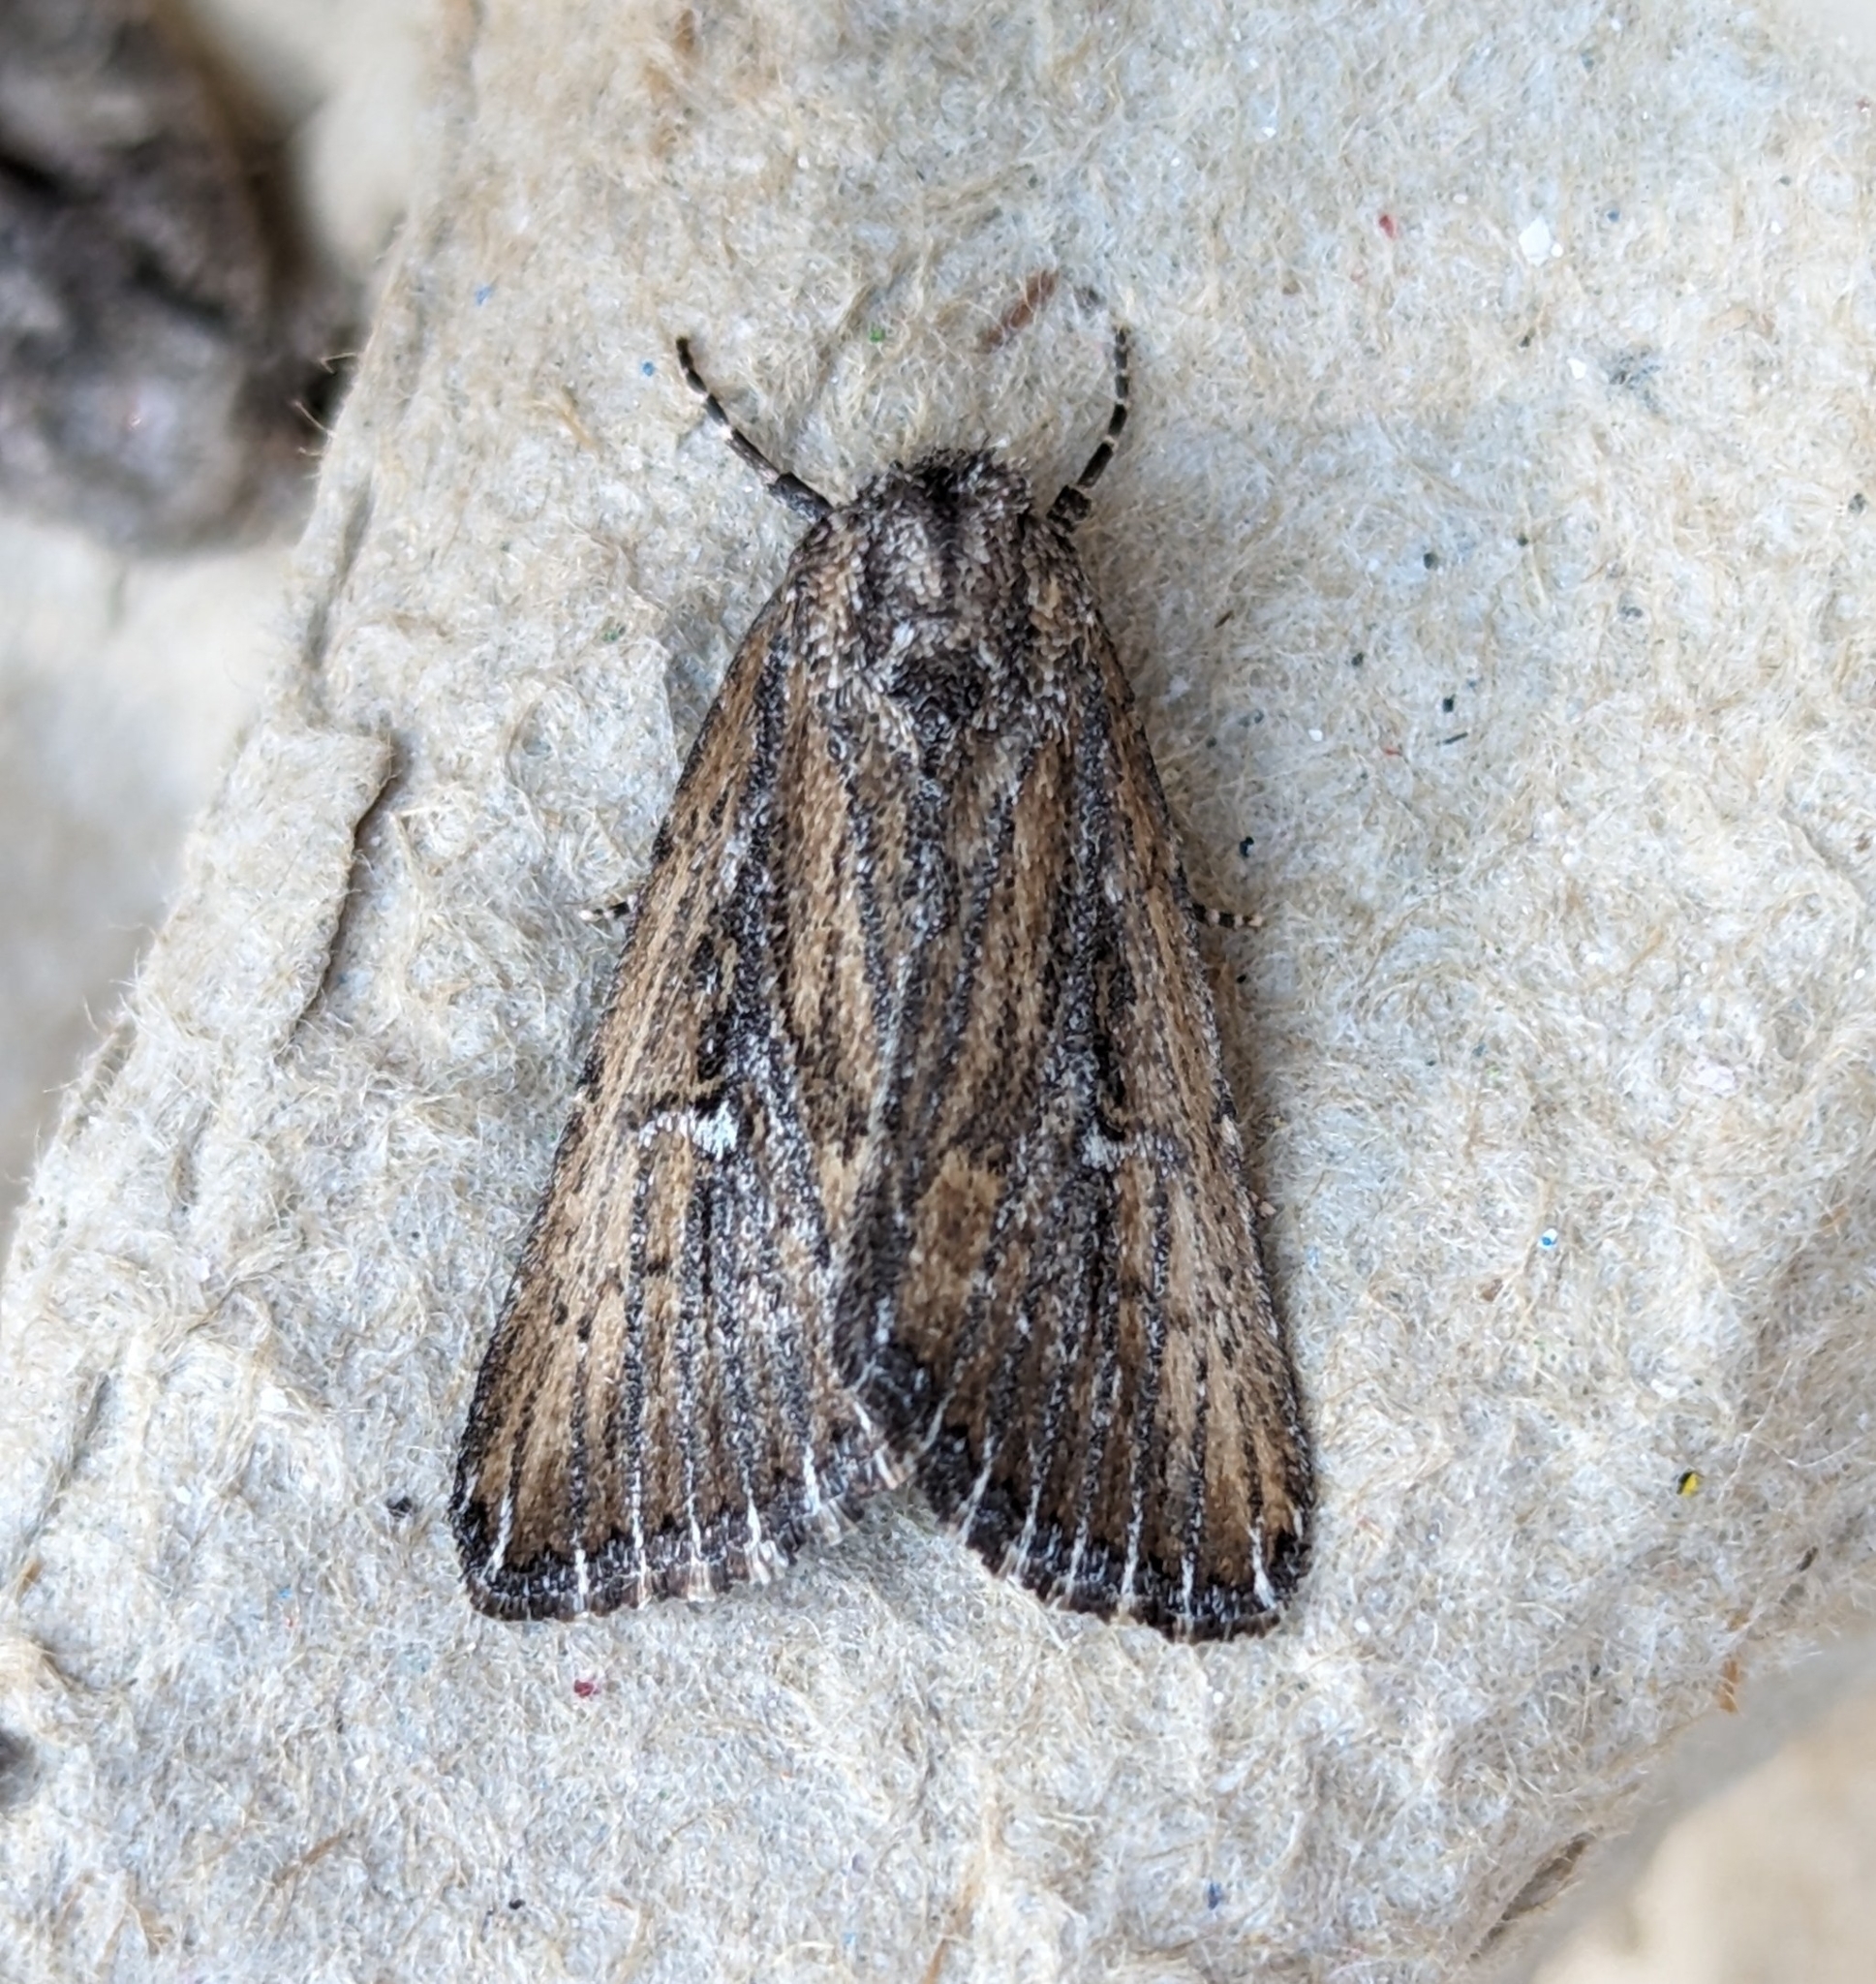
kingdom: Animalia
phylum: Arthropoda
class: Insecta
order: Lepidoptera
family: Noctuidae
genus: Condica
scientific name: Condica discistriga
